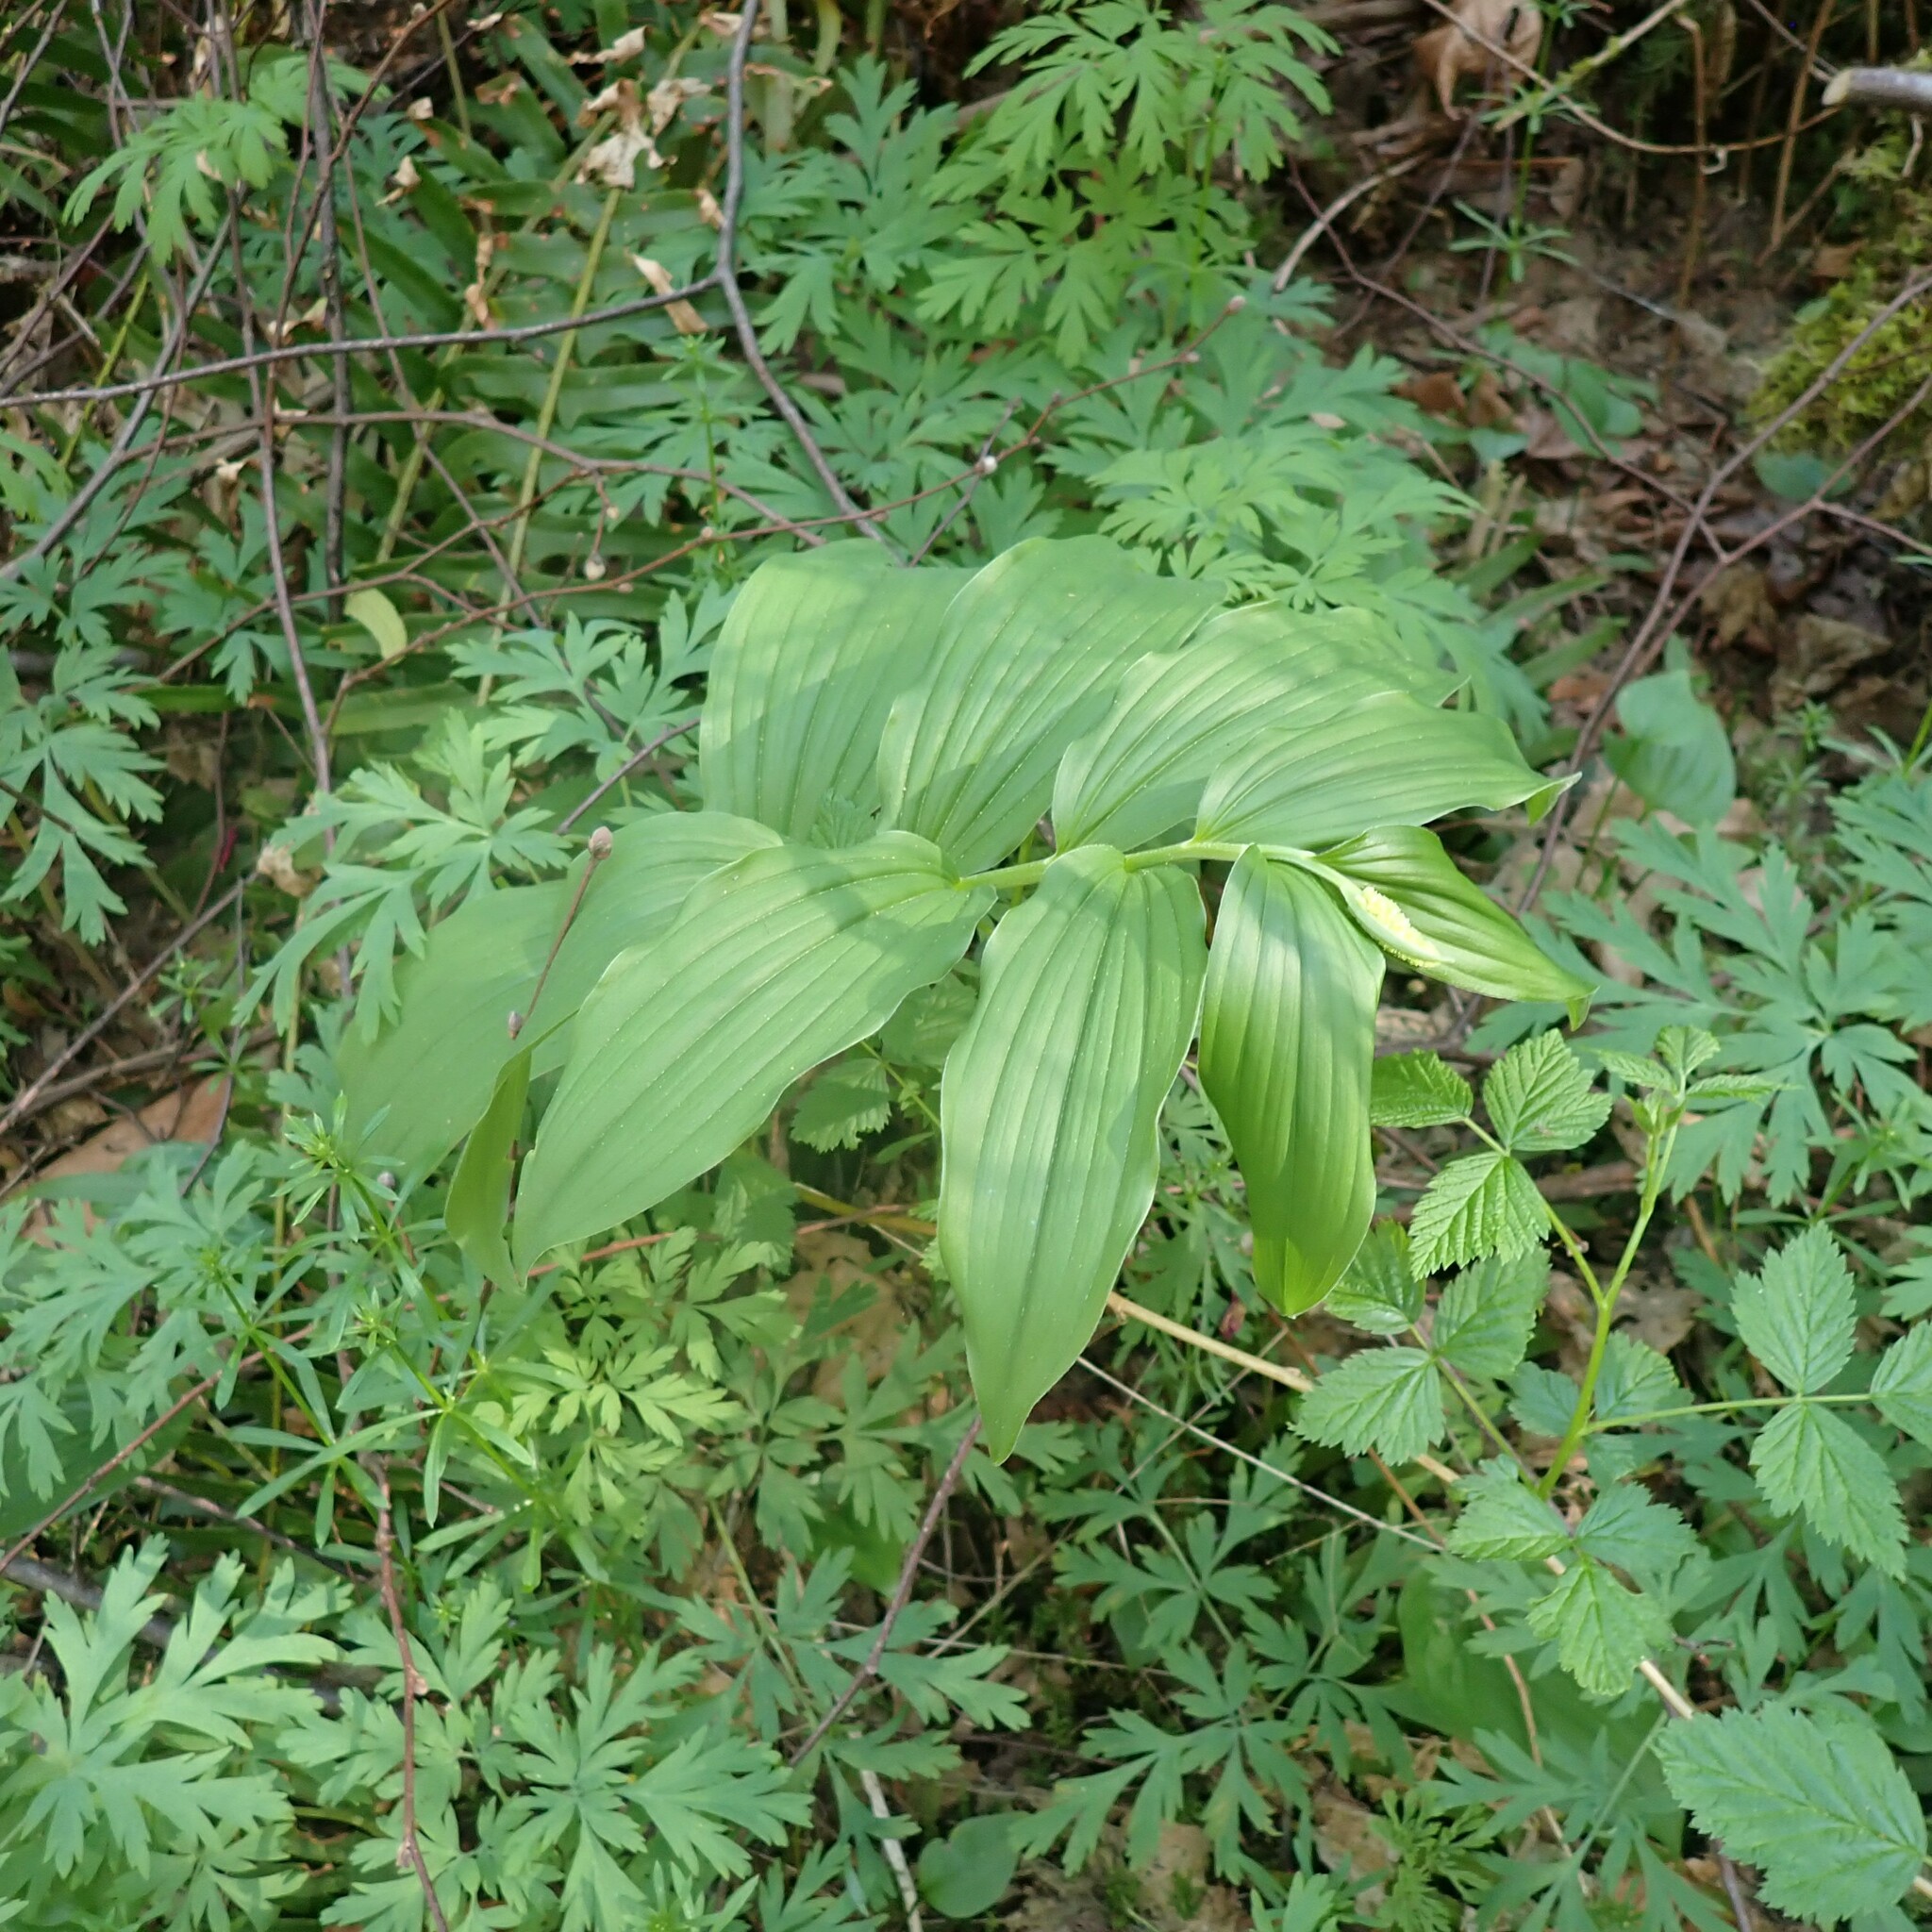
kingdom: Plantae
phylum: Tracheophyta
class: Liliopsida
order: Asparagales
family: Asparagaceae
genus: Maianthemum
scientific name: Maianthemum racemosum
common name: False spikenard
